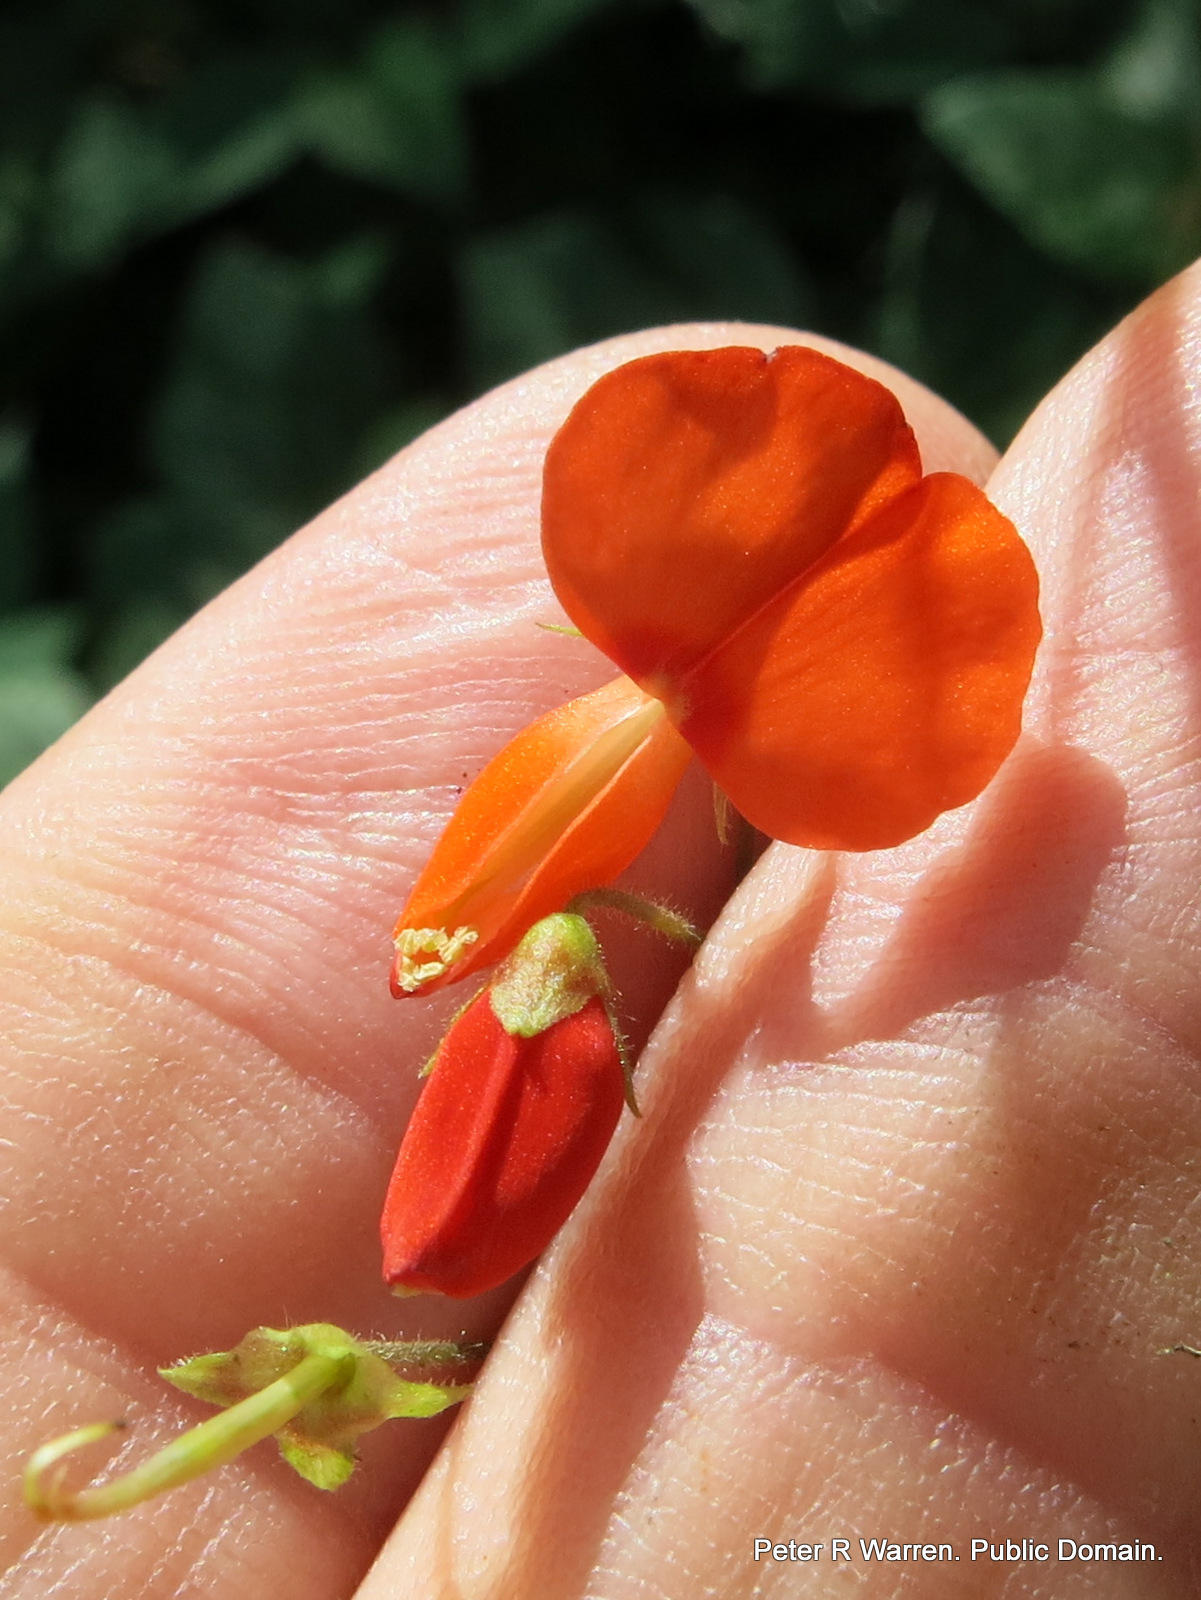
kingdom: Plantae
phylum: Tracheophyta
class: Magnoliopsida
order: Fabales
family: Fabaceae
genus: Hylodesmum
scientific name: Hylodesmum repandum
